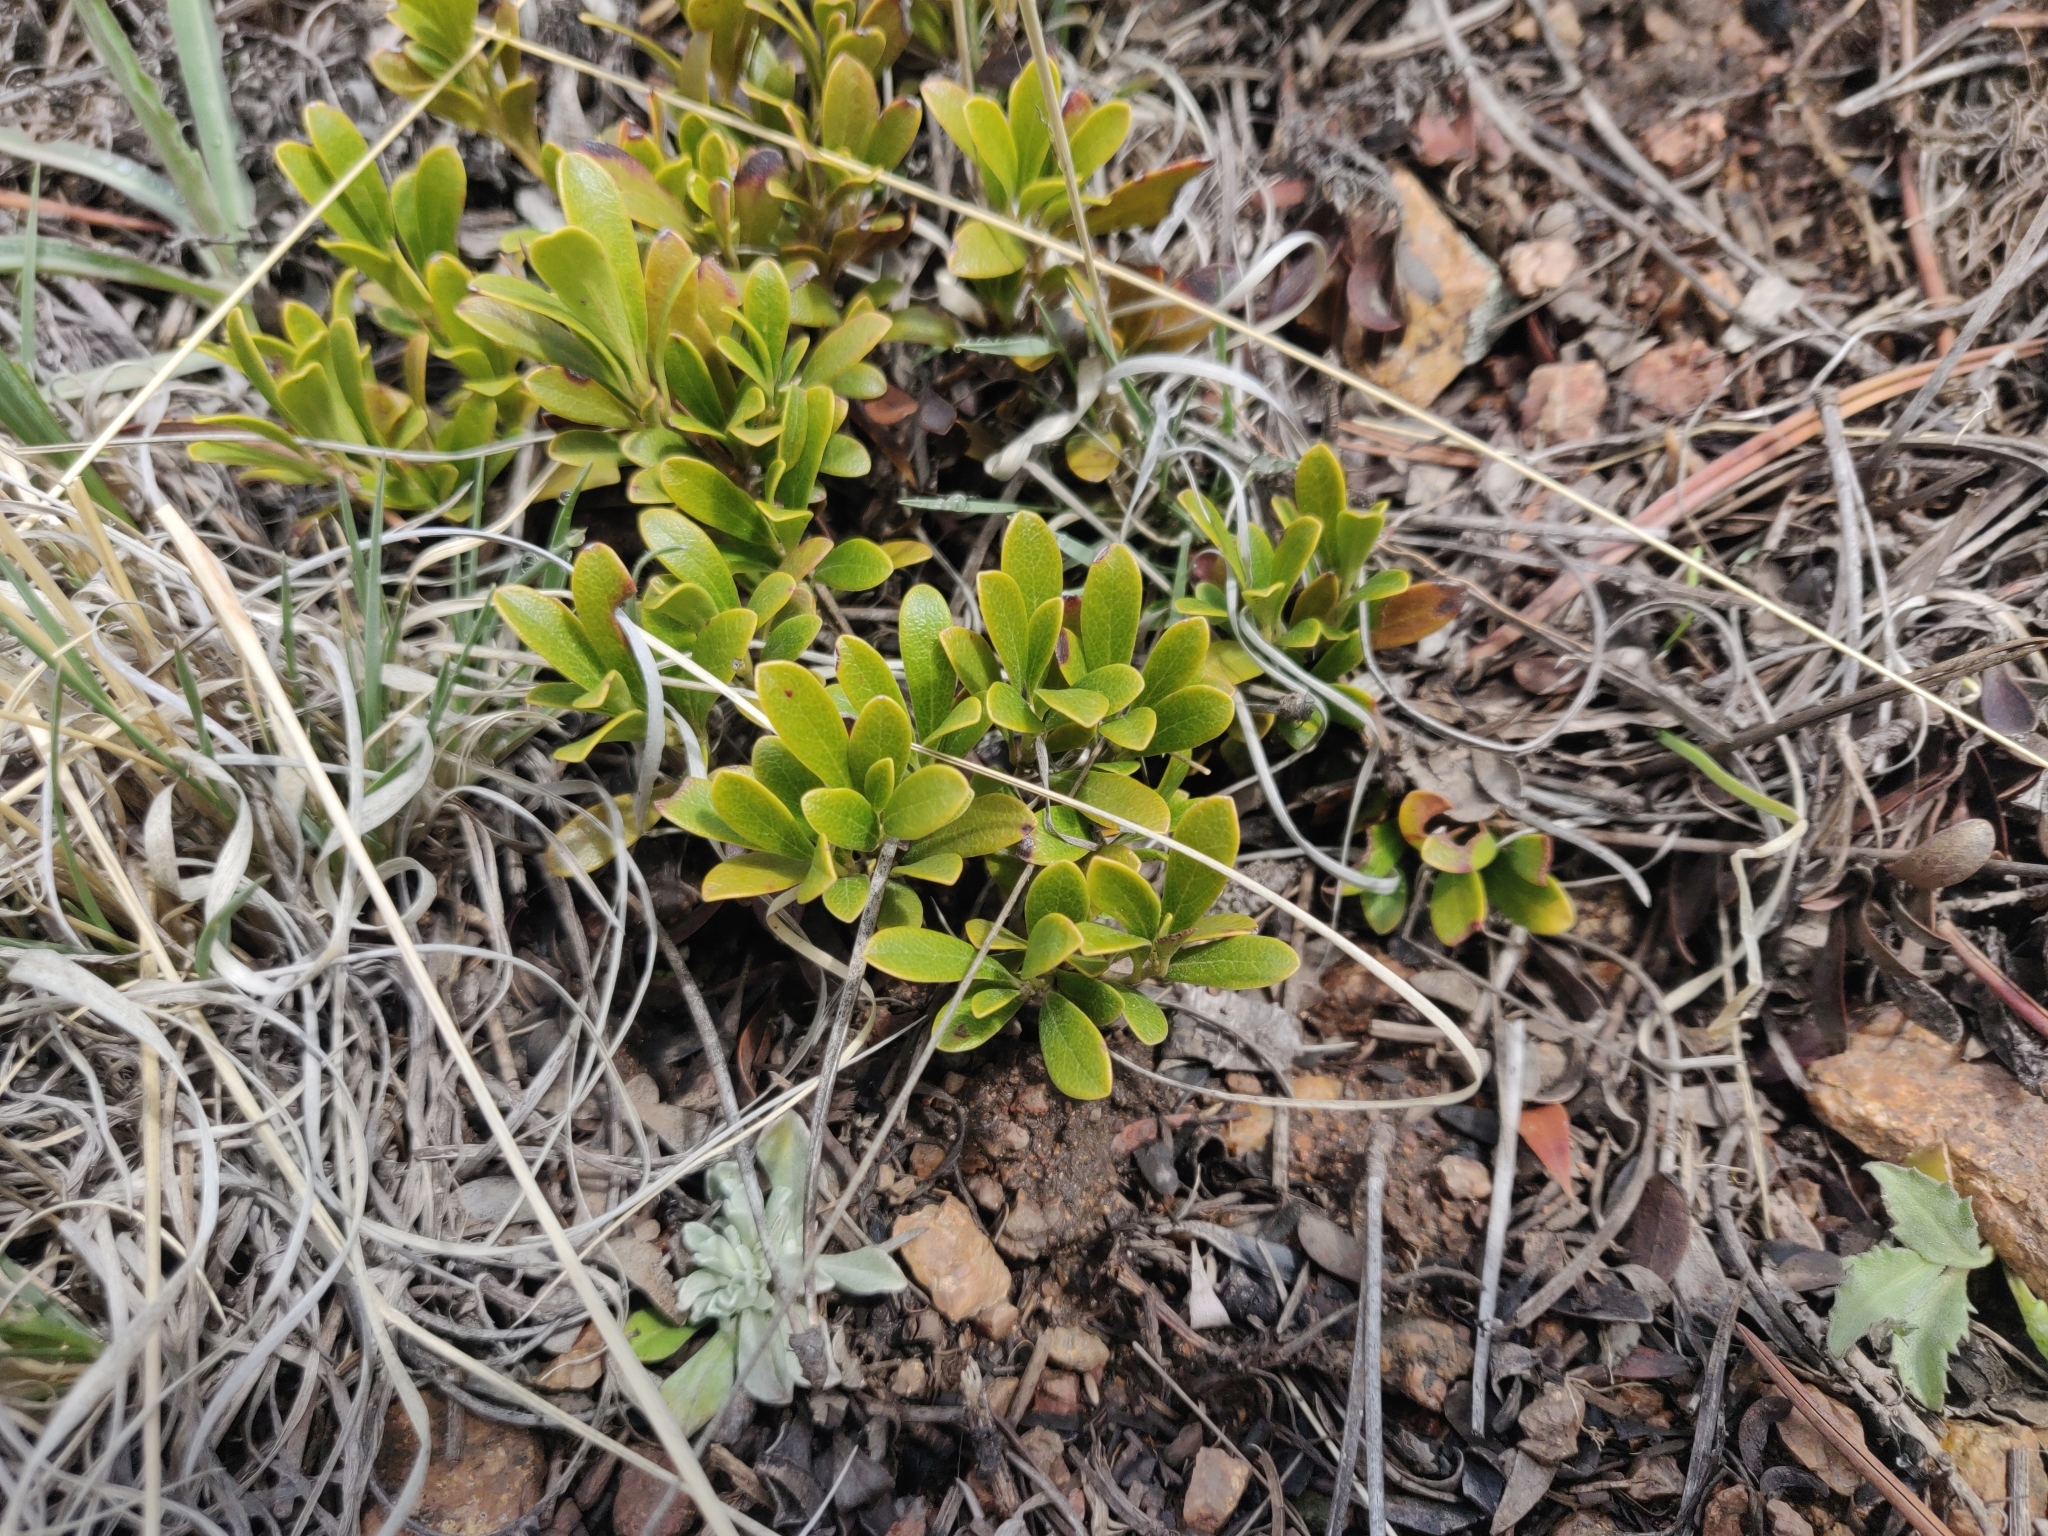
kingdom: Plantae
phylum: Tracheophyta
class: Magnoliopsida
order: Ericales
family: Ericaceae
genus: Arctostaphylos
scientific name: Arctostaphylos uva-ursi
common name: Bearberry
